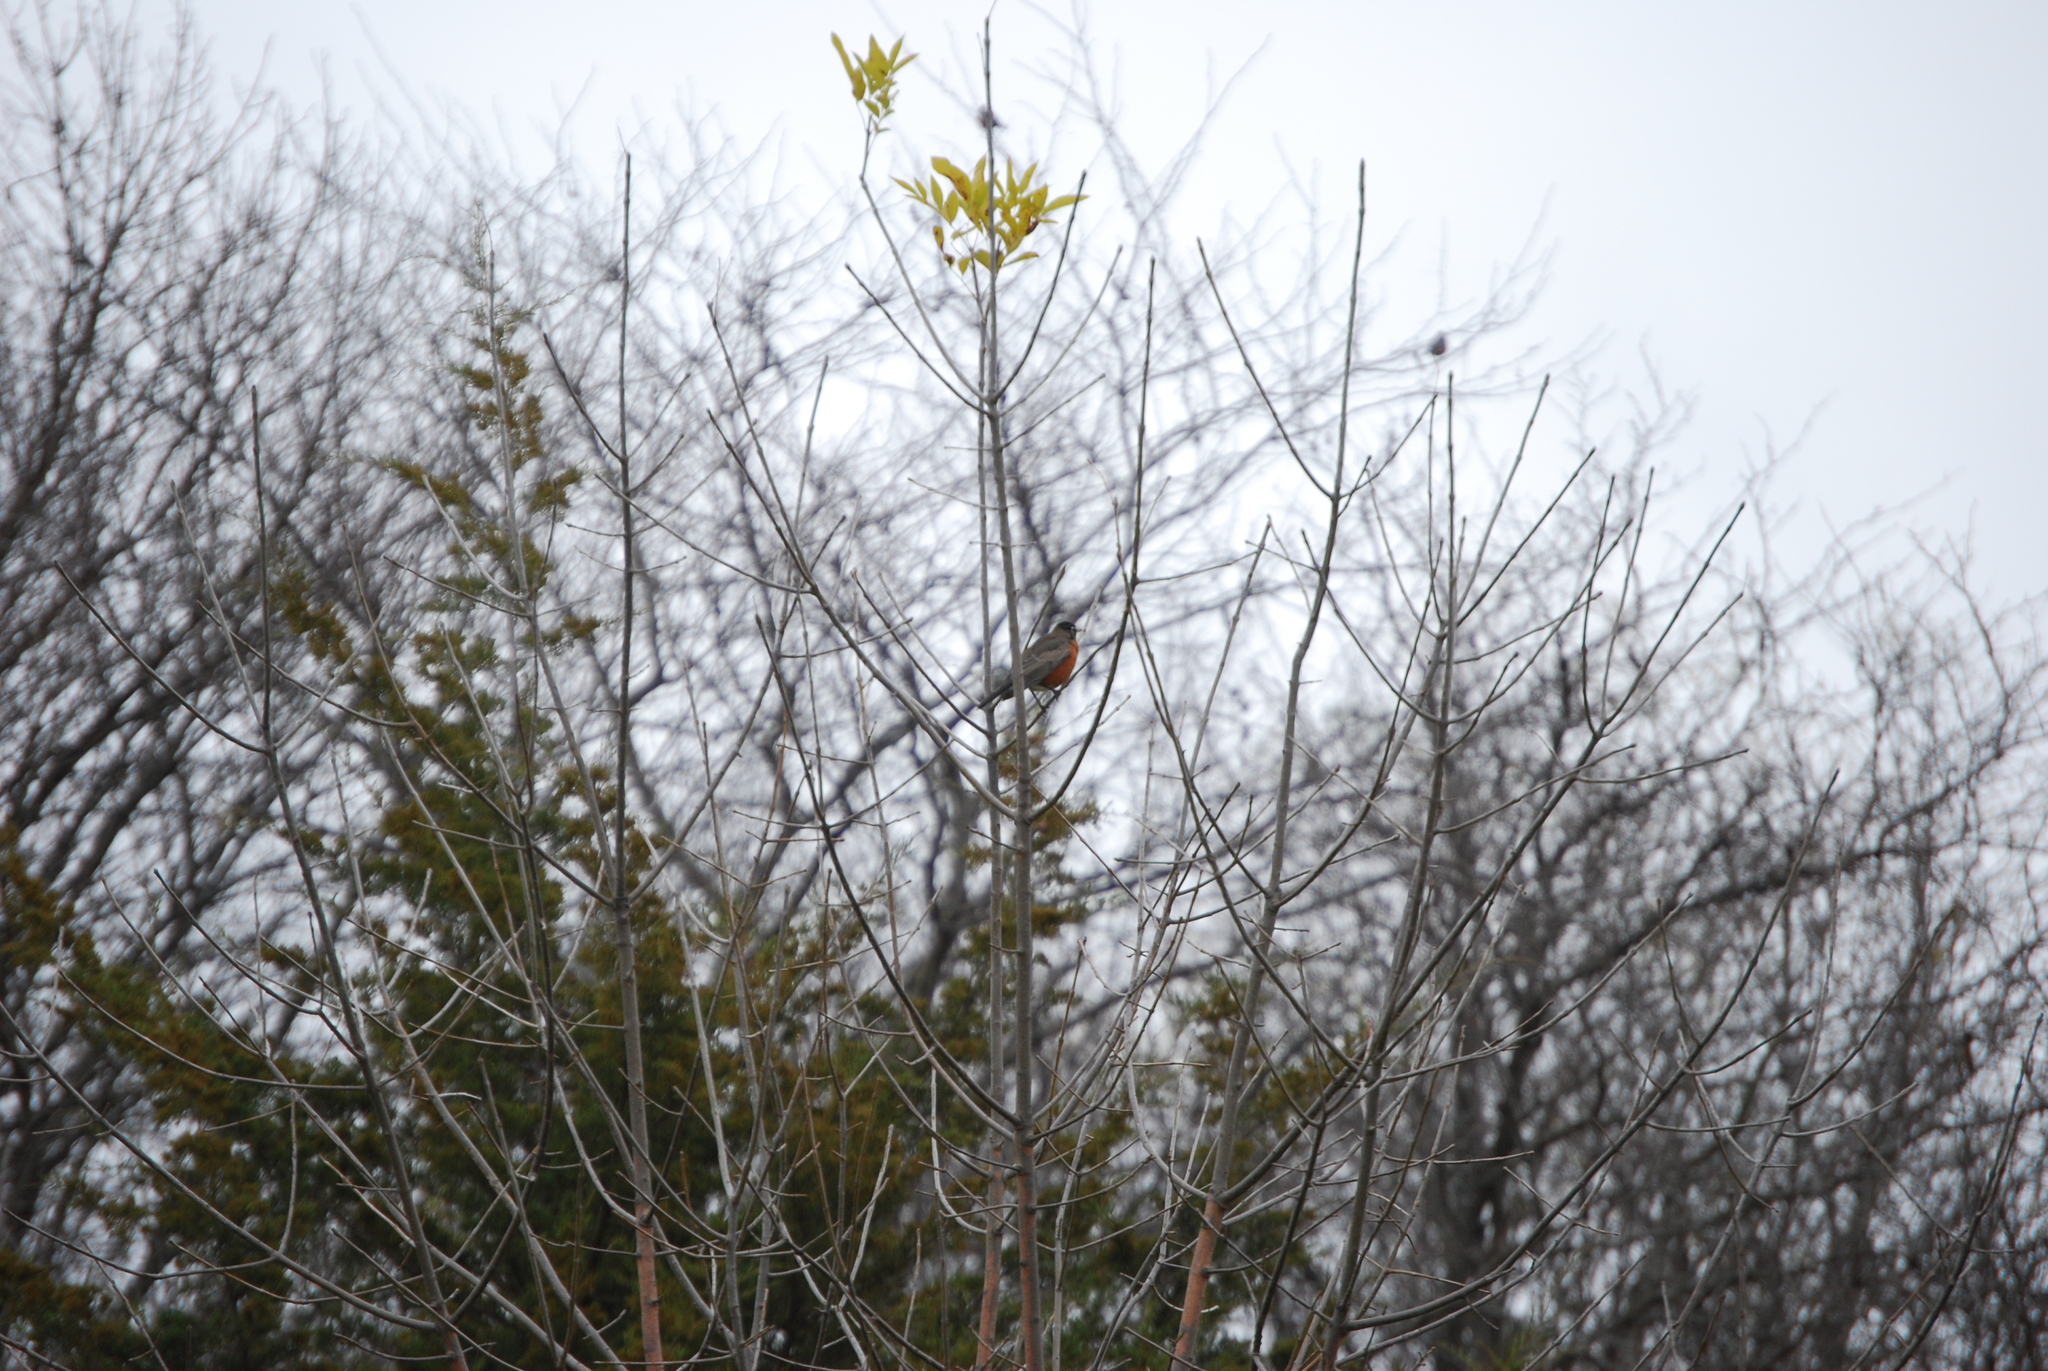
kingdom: Animalia
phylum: Chordata
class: Aves
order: Passeriformes
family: Turdidae
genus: Turdus
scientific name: Turdus migratorius
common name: American robin
